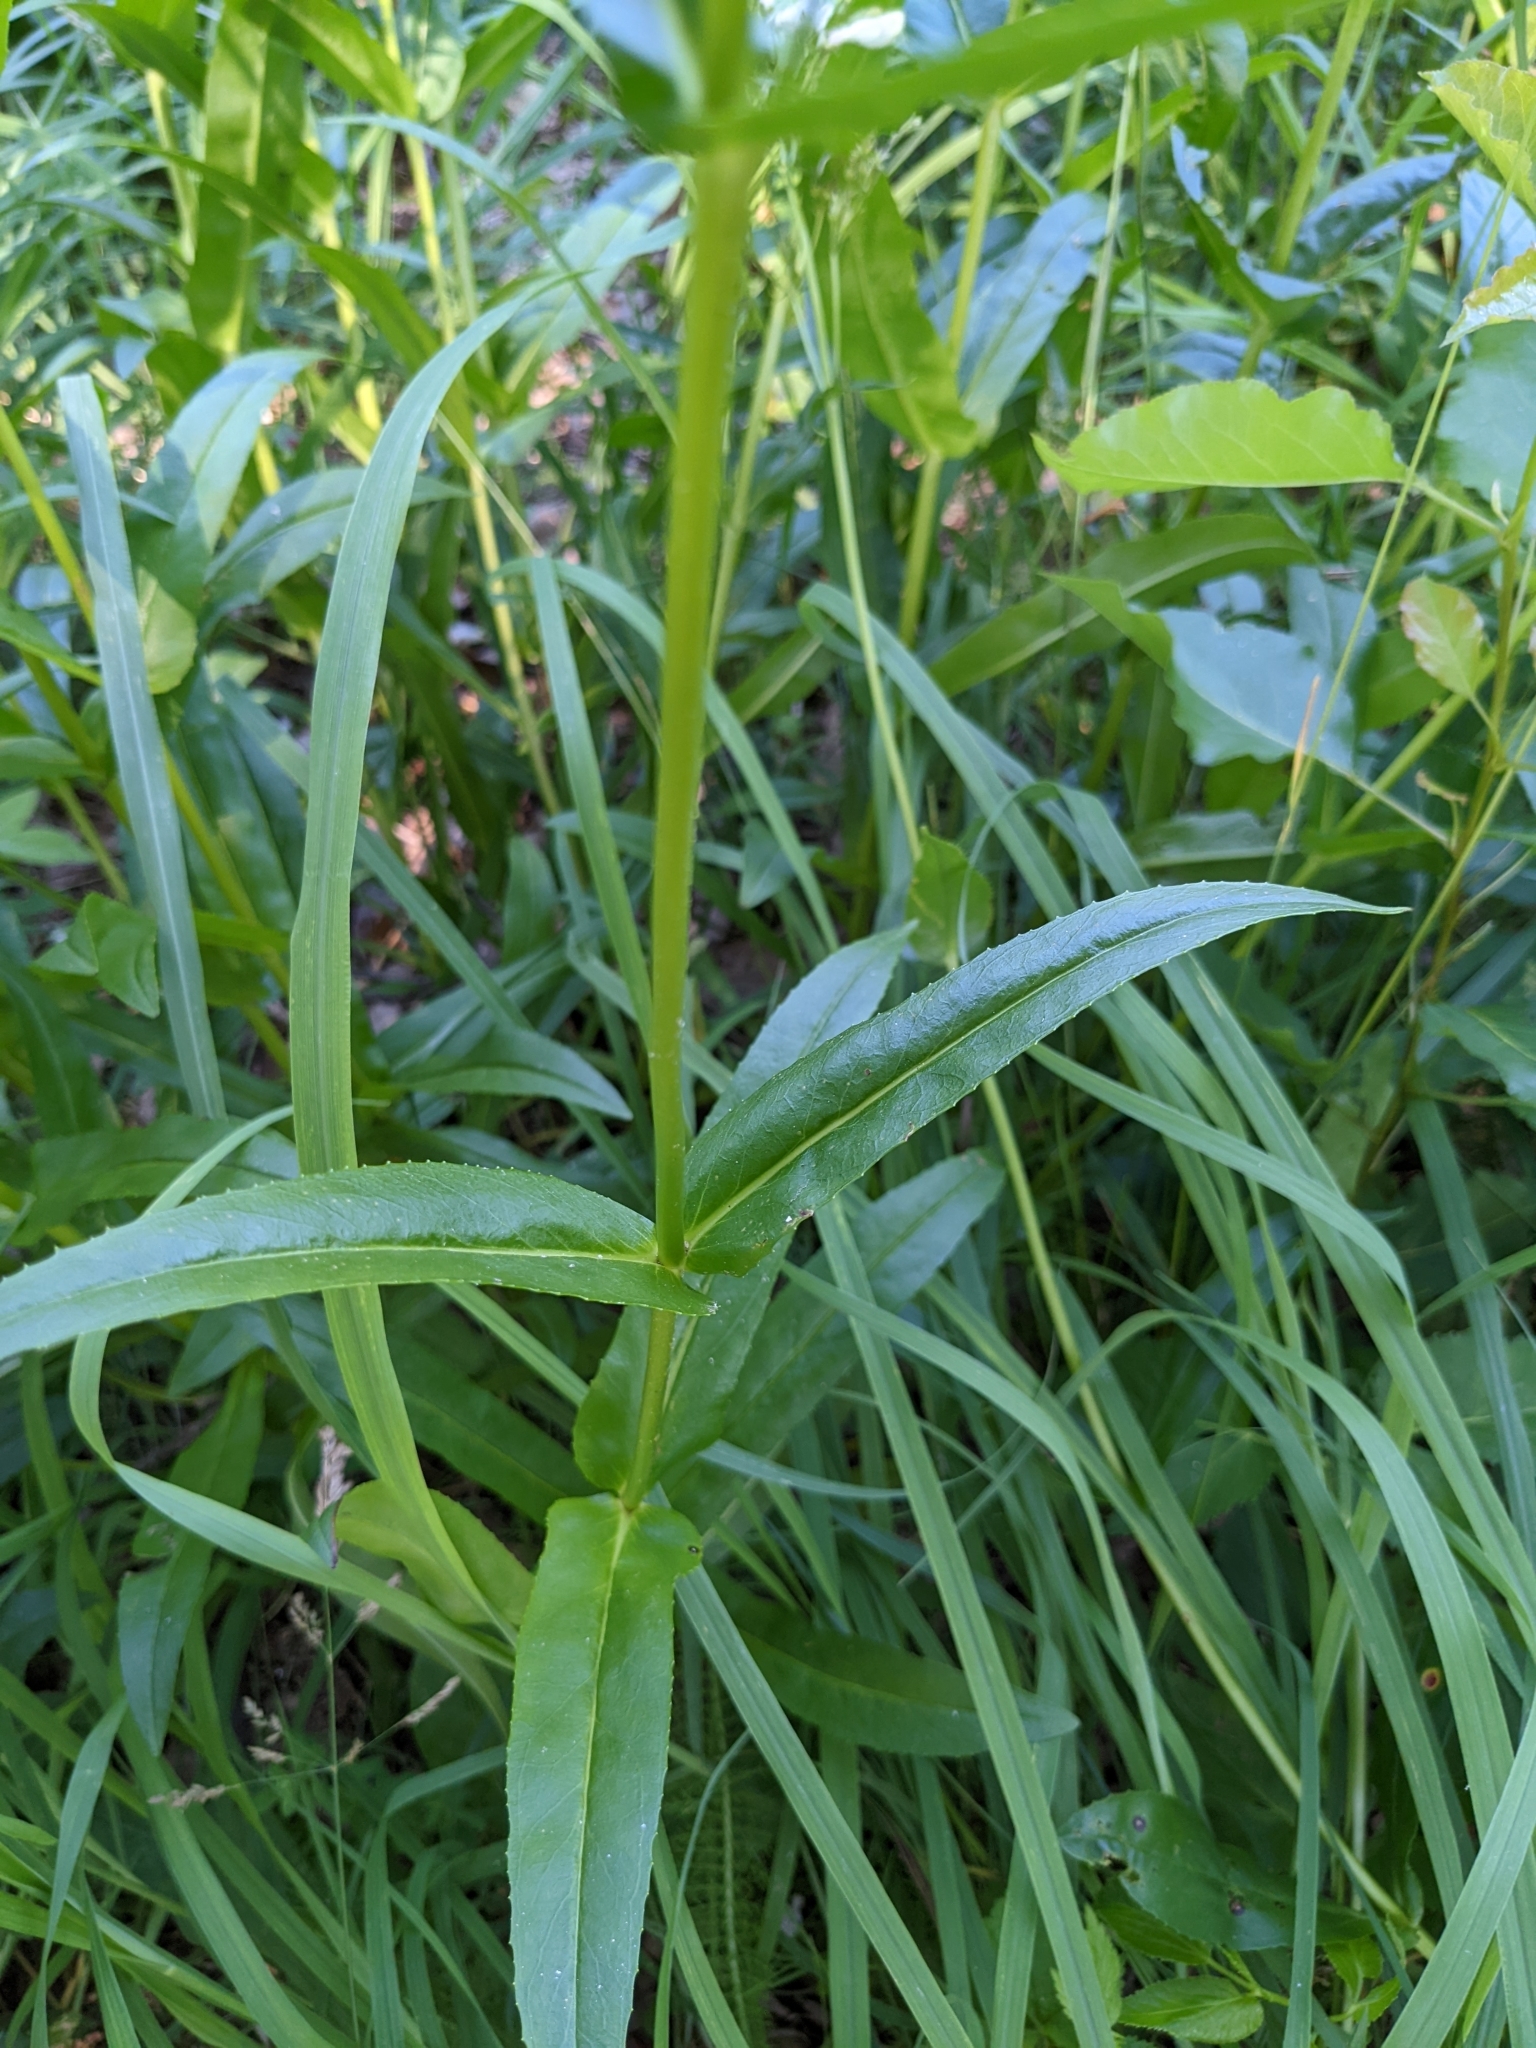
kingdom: Plantae
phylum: Tracheophyta
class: Magnoliopsida
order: Lamiales
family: Plantaginaceae
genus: Penstemon
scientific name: Penstemon digitalis
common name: Foxglove beardtongue
